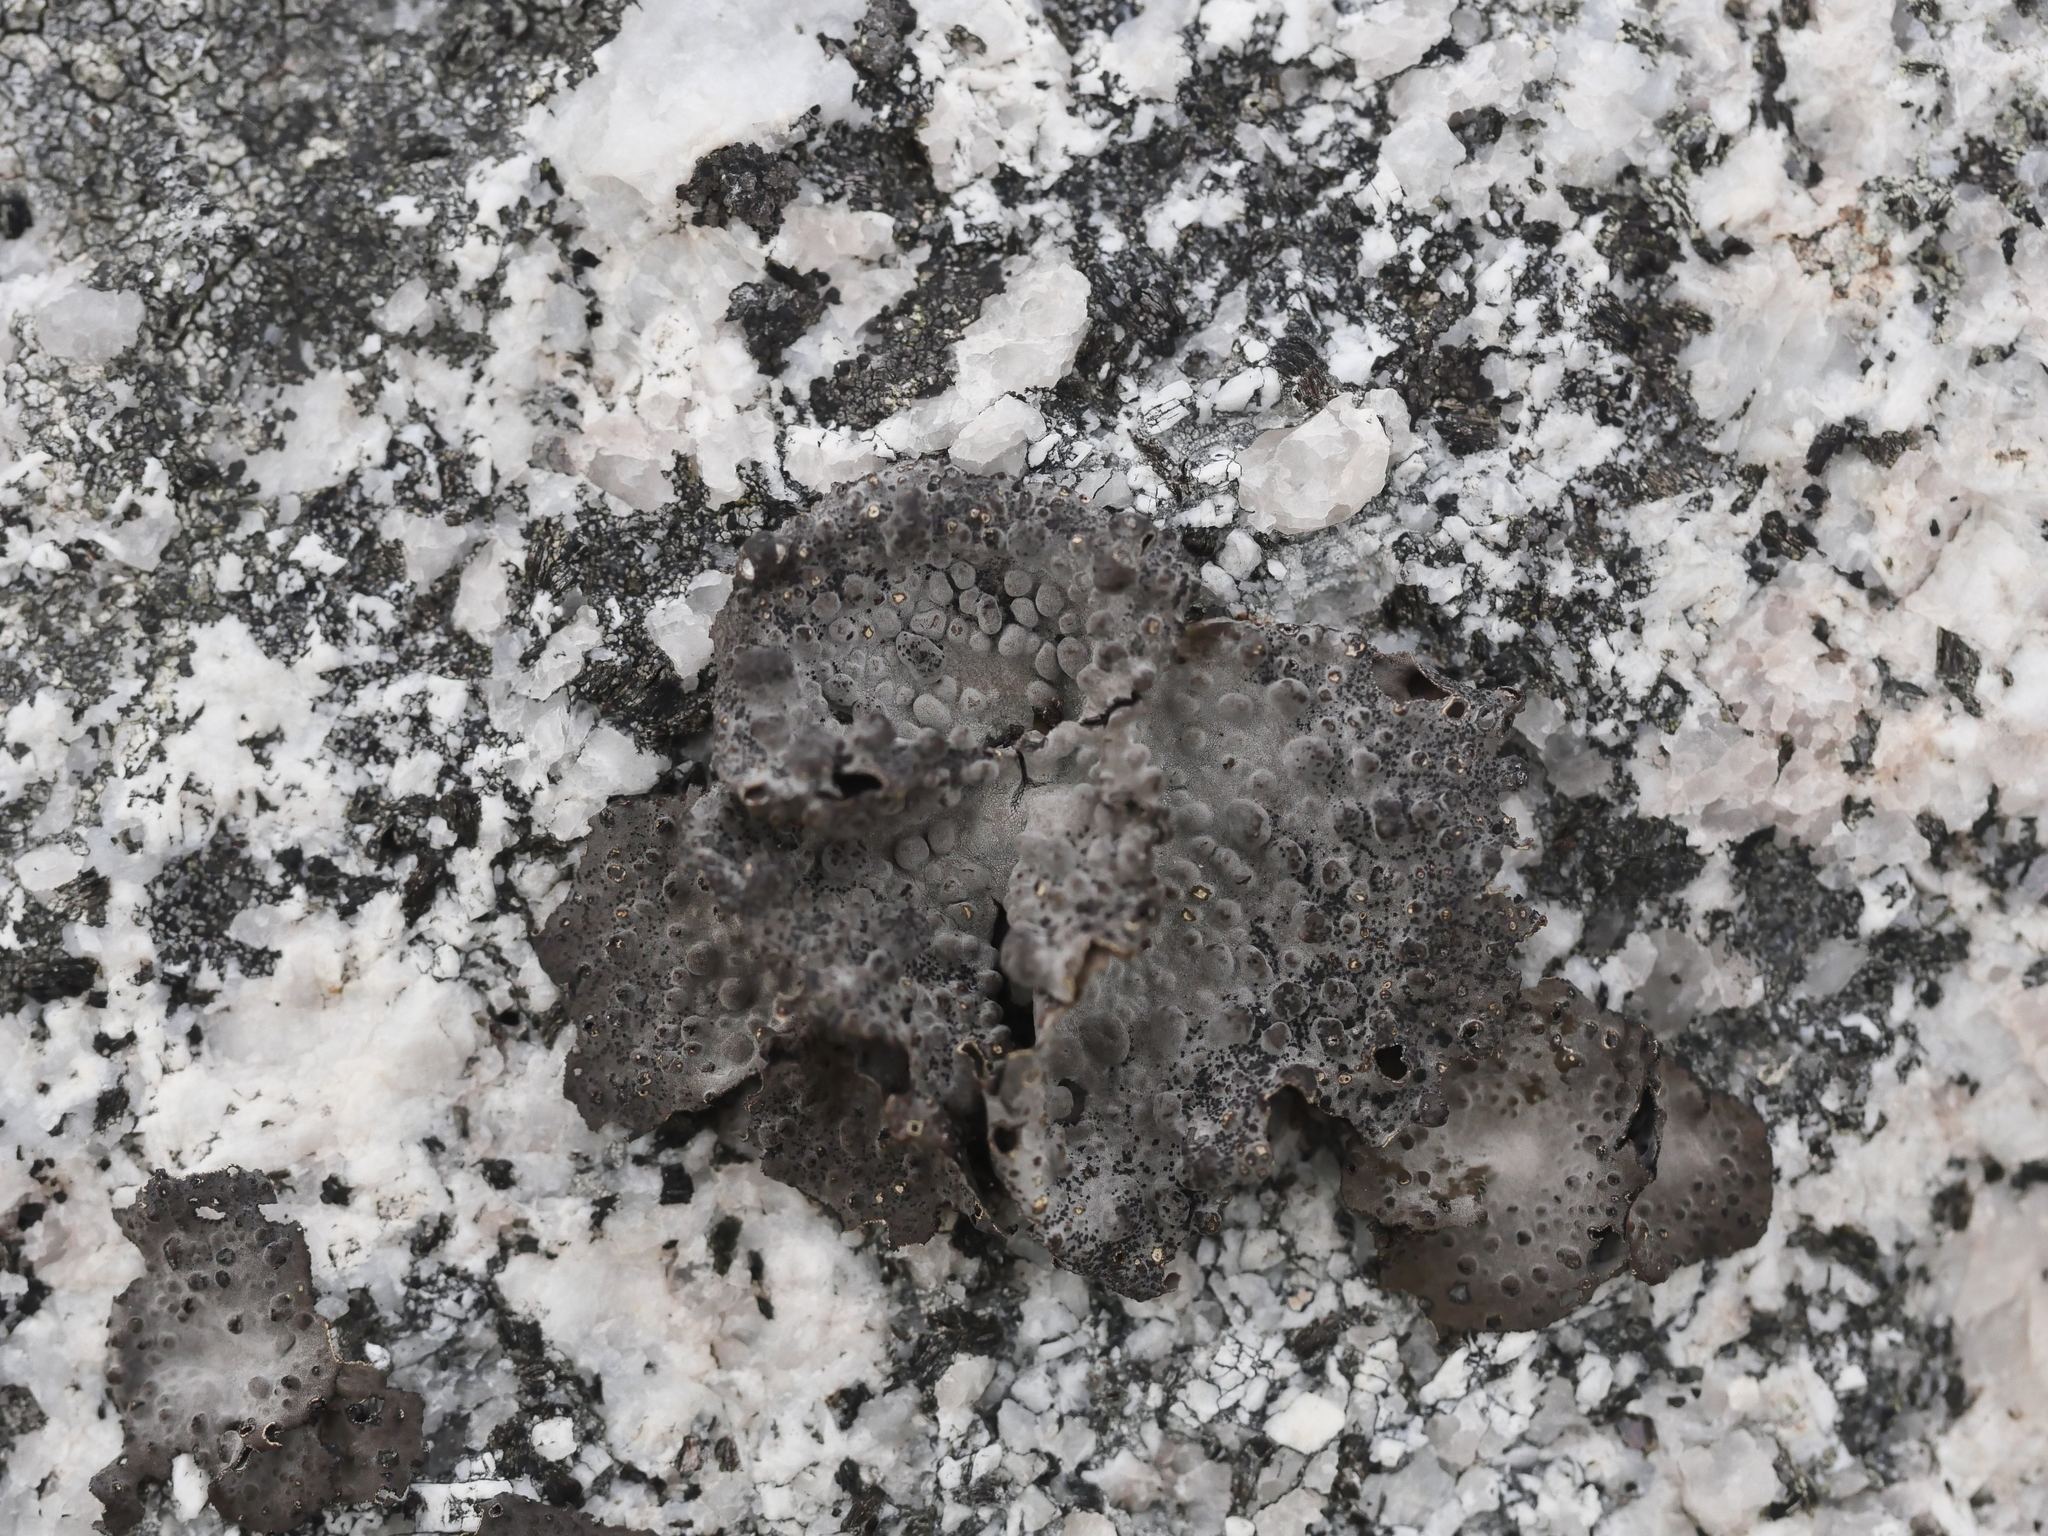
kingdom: Fungi
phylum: Ascomycota
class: Lecanoromycetes
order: Umbilicariales
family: Umbilicariaceae
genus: Lasallia
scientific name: Lasallia papulosa
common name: Common toadskin lichen
